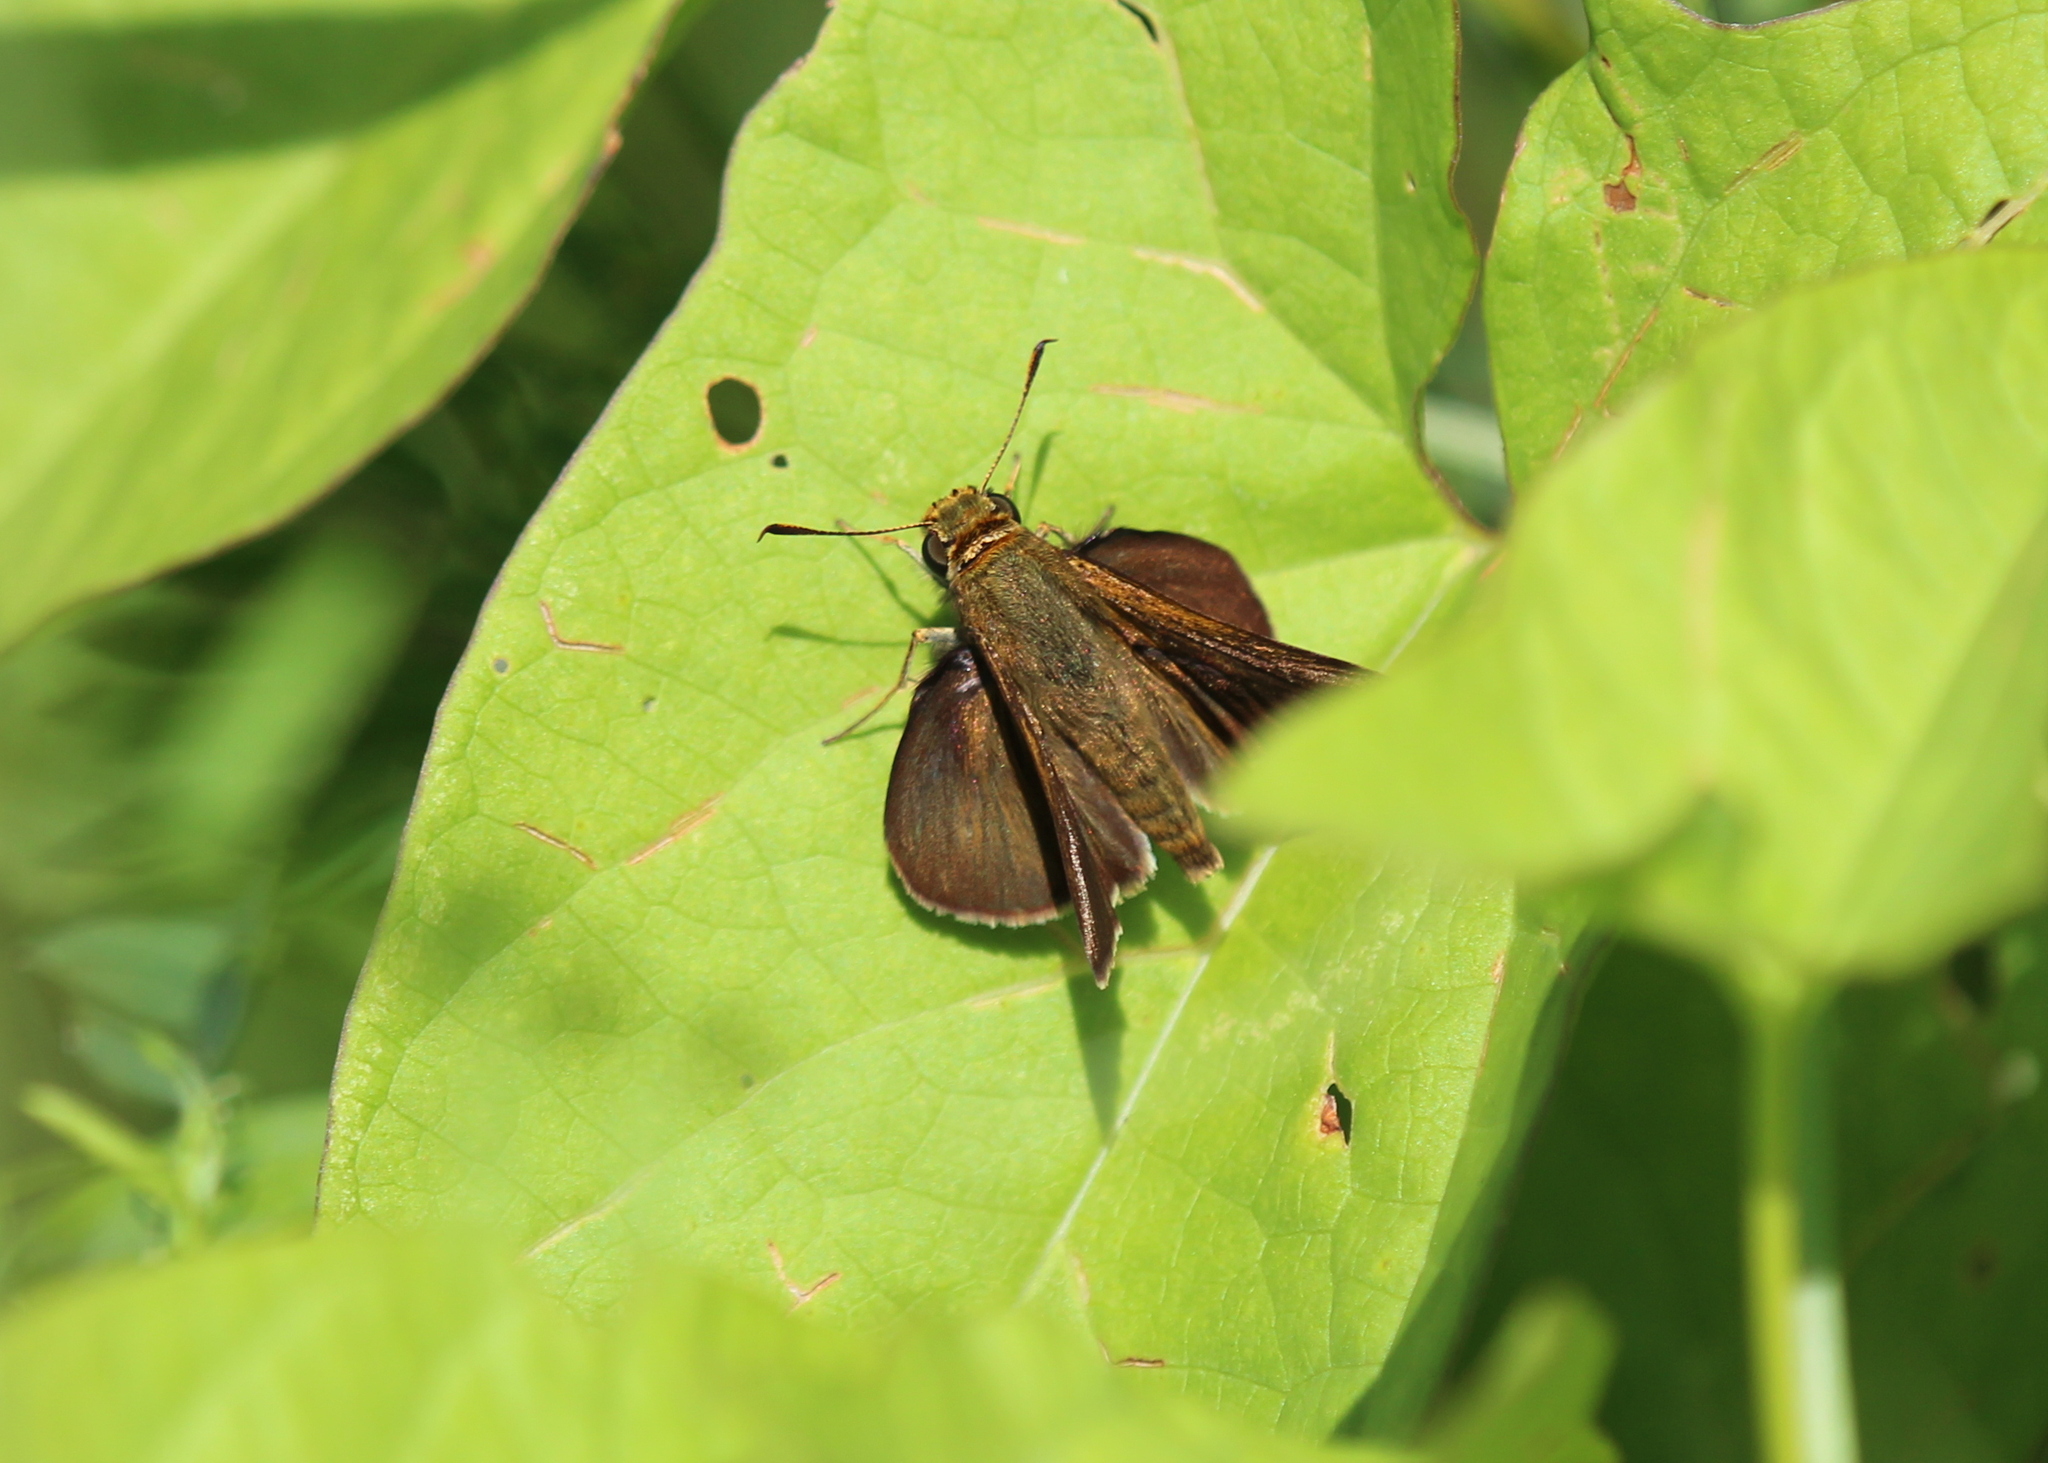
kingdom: Animalia
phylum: Arthropoda
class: Insecta
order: Lepidoptera
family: Hesperiidae
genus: Euphyes
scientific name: Euphyes vestris
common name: Dun skipper
